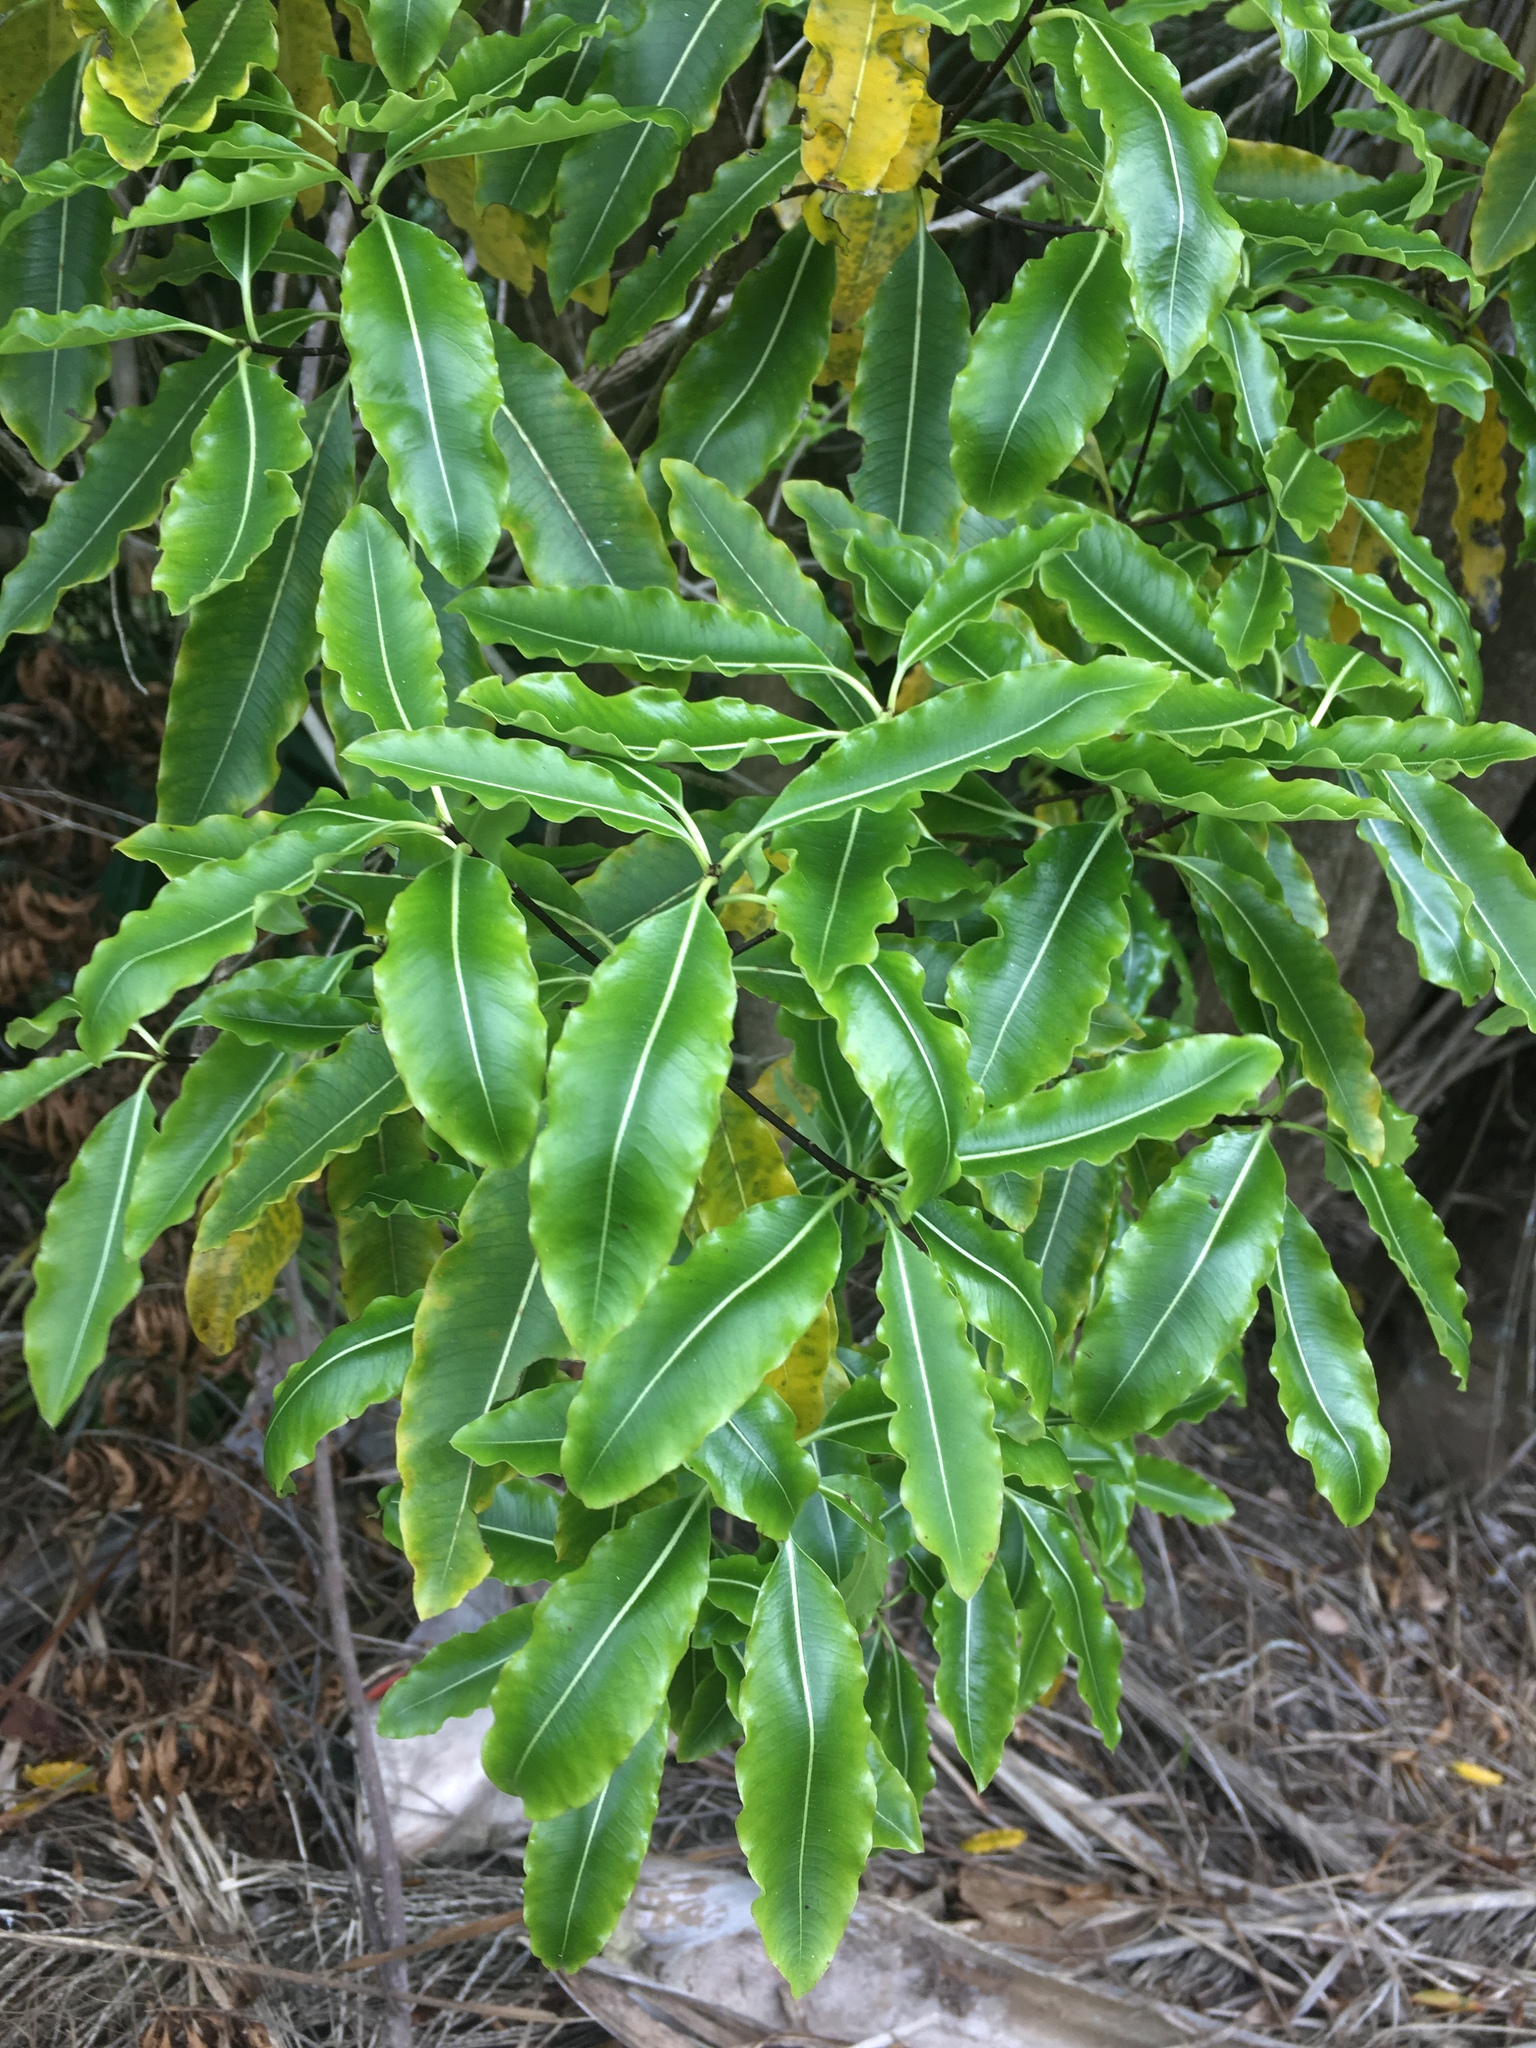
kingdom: Plantae
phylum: Tracheophyta
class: Magnoliopsida
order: Apiales
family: Pittosporaceae
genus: Pittosporum
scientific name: Pittosporum eugenioides
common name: Lemonwood
